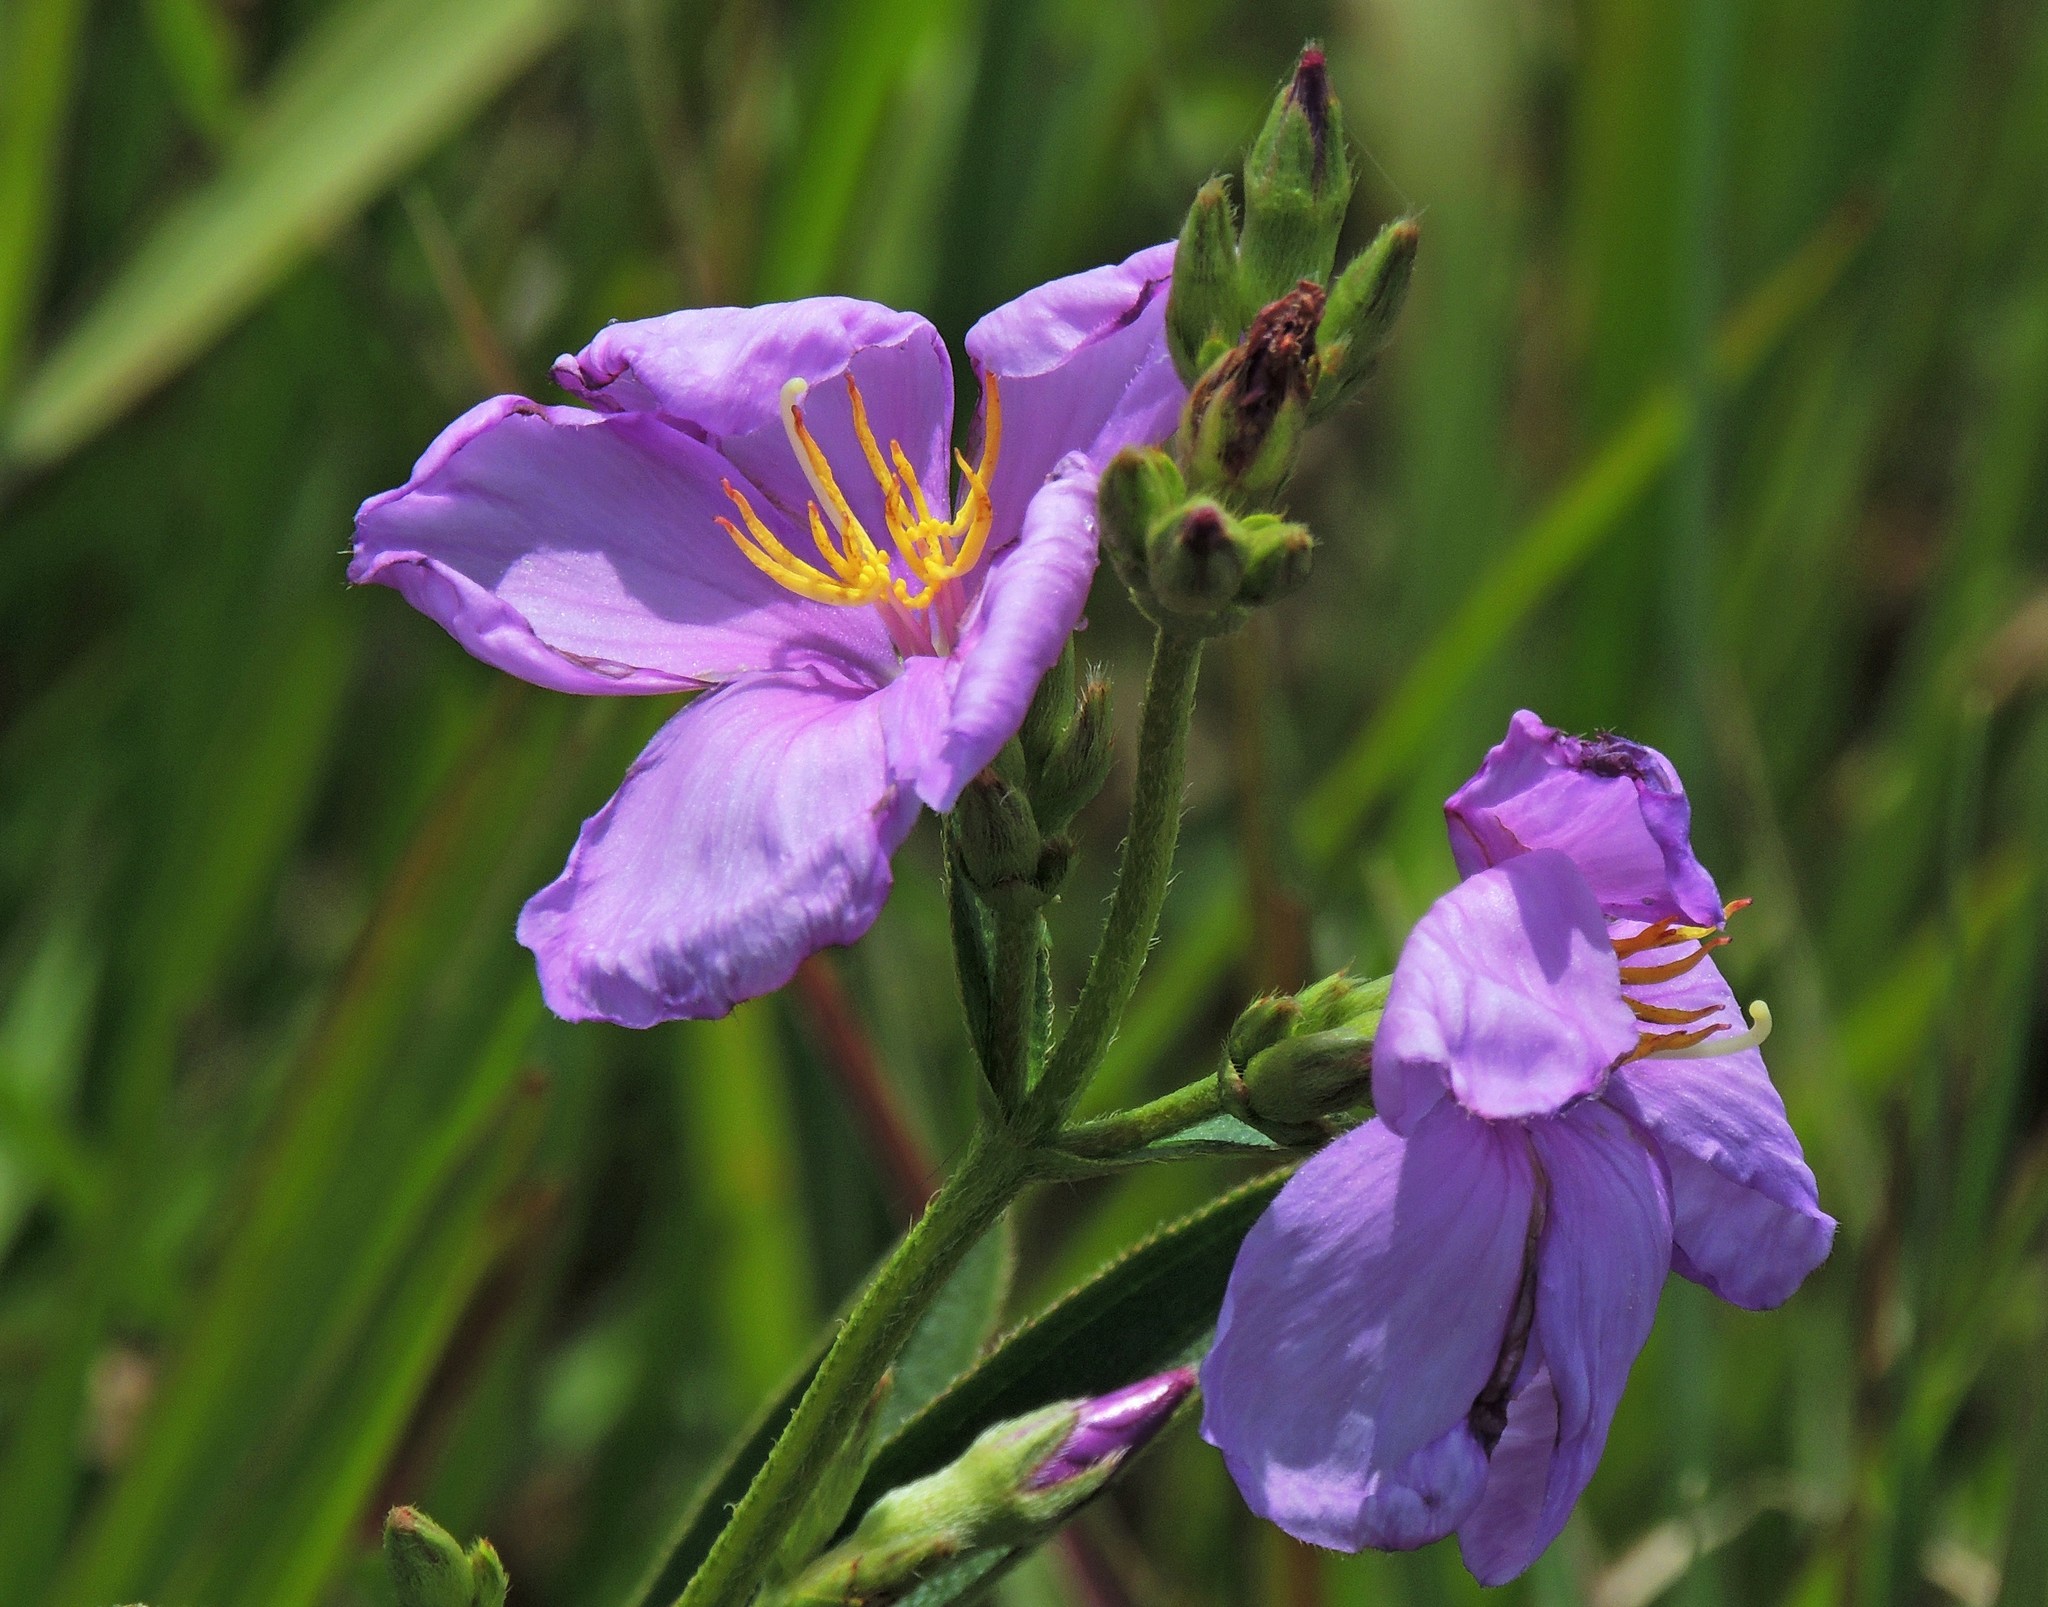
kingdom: Plantae
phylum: Tracheophyta
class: Magnoliopsida
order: Myrtales
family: Melastomataceae
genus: Chaetogastra
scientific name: Chaetogastra gracilis
